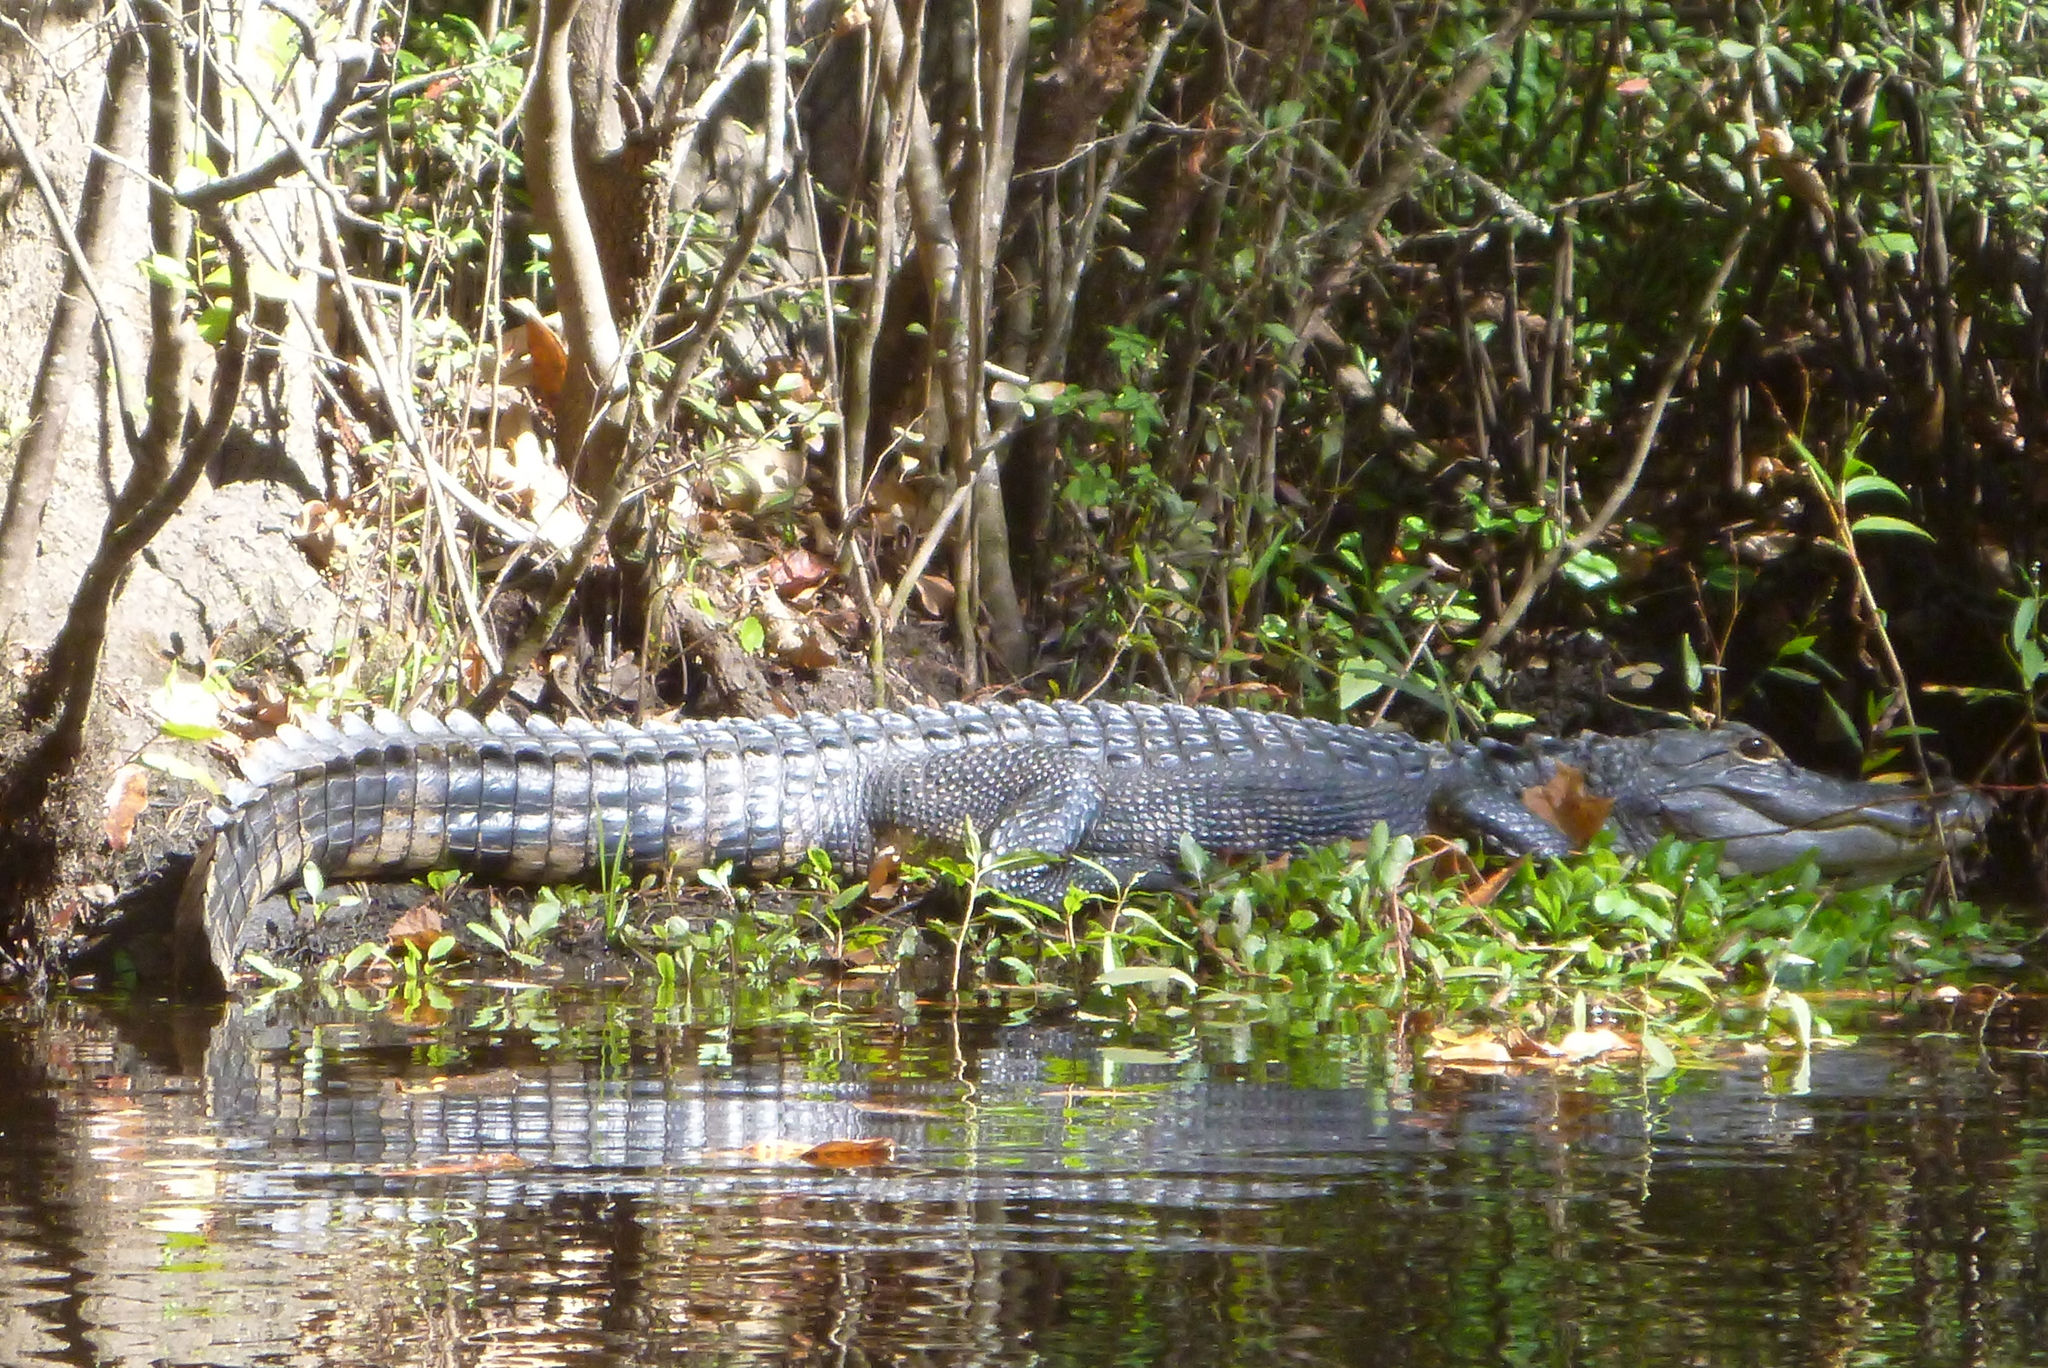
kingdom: Animalia
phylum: Chordata
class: Crocodylia
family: Alligatoridae
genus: Alligator
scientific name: Alligator mississippiensis
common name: American alligator
